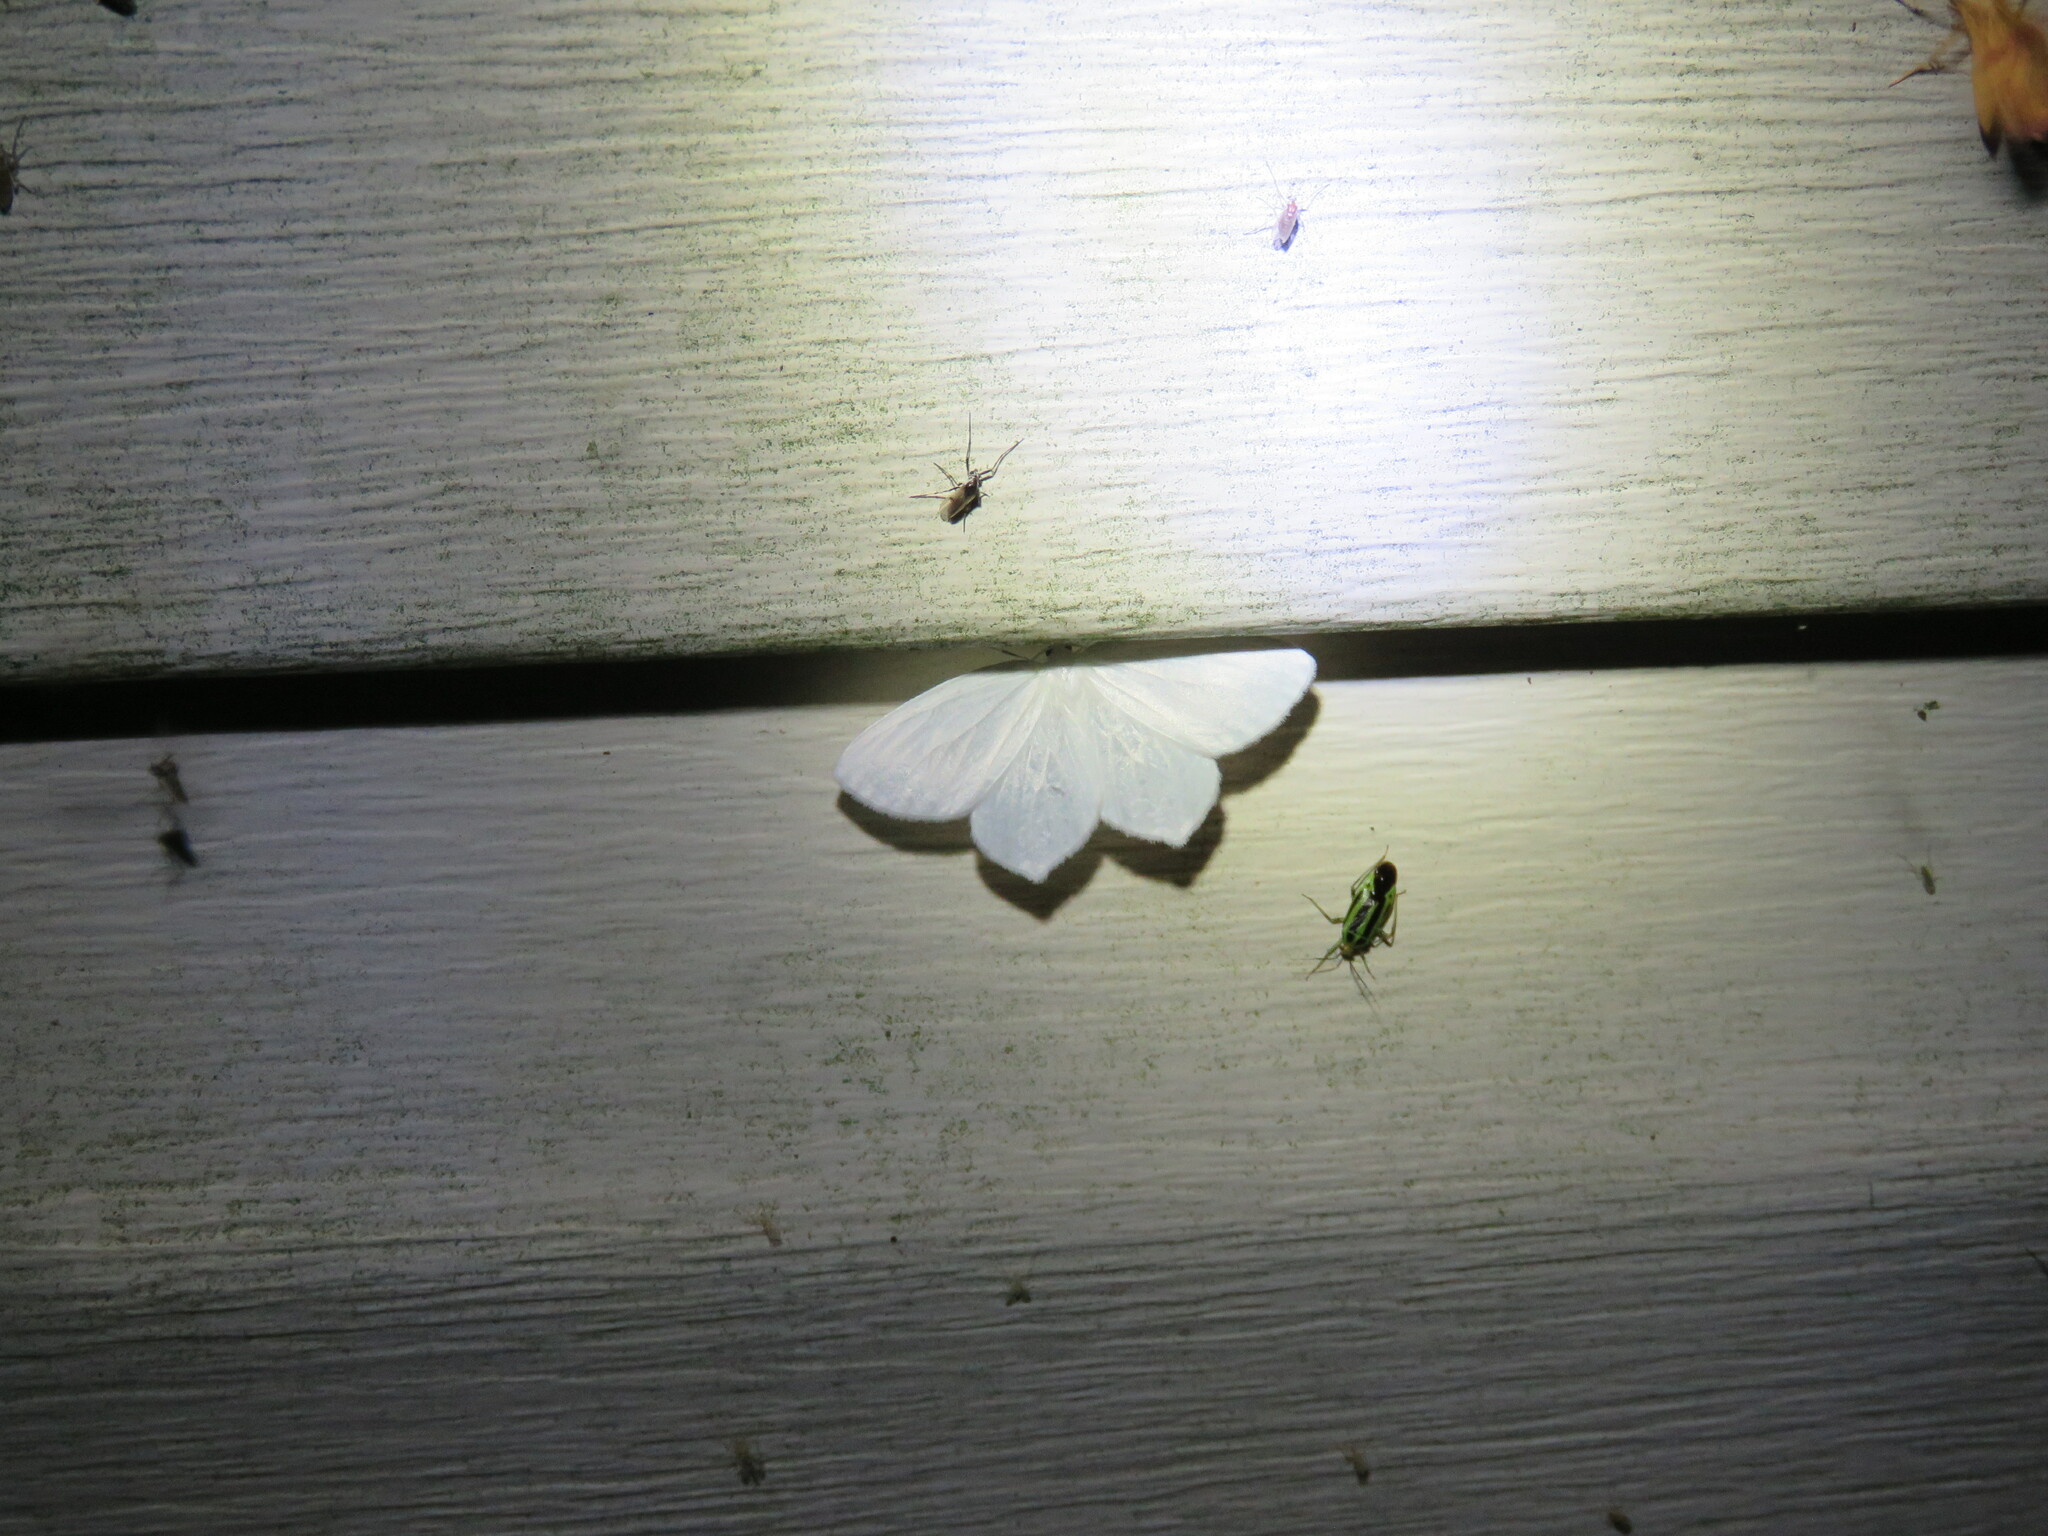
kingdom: Animalia
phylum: Arthropoda
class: Insecta
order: Lepidoptera
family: Geometridae
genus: Eugonobapta
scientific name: Eugonobapta nivosaria
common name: Snowy geometer
